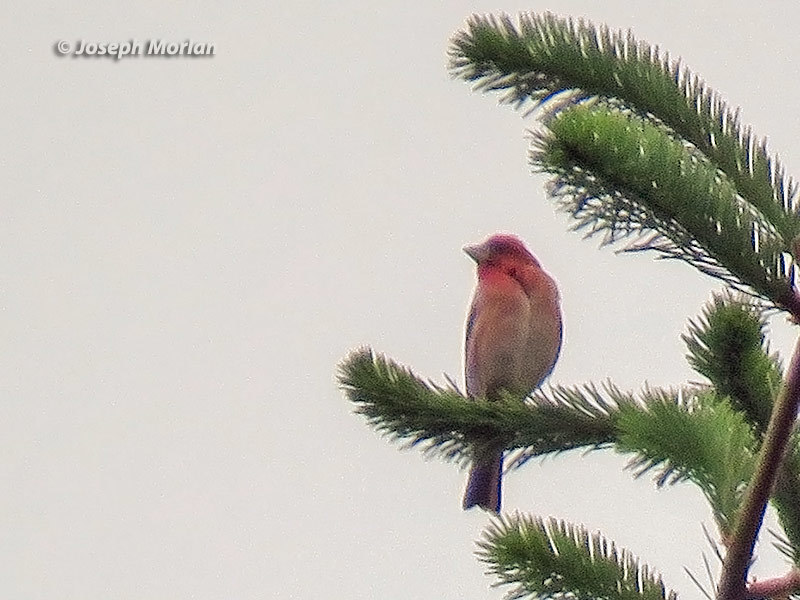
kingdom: Animalia
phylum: Chordata
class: Aves
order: Passeriformes
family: Fringillidae
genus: Haemorhous
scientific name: Haemorhous purpureus
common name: Purple finch
